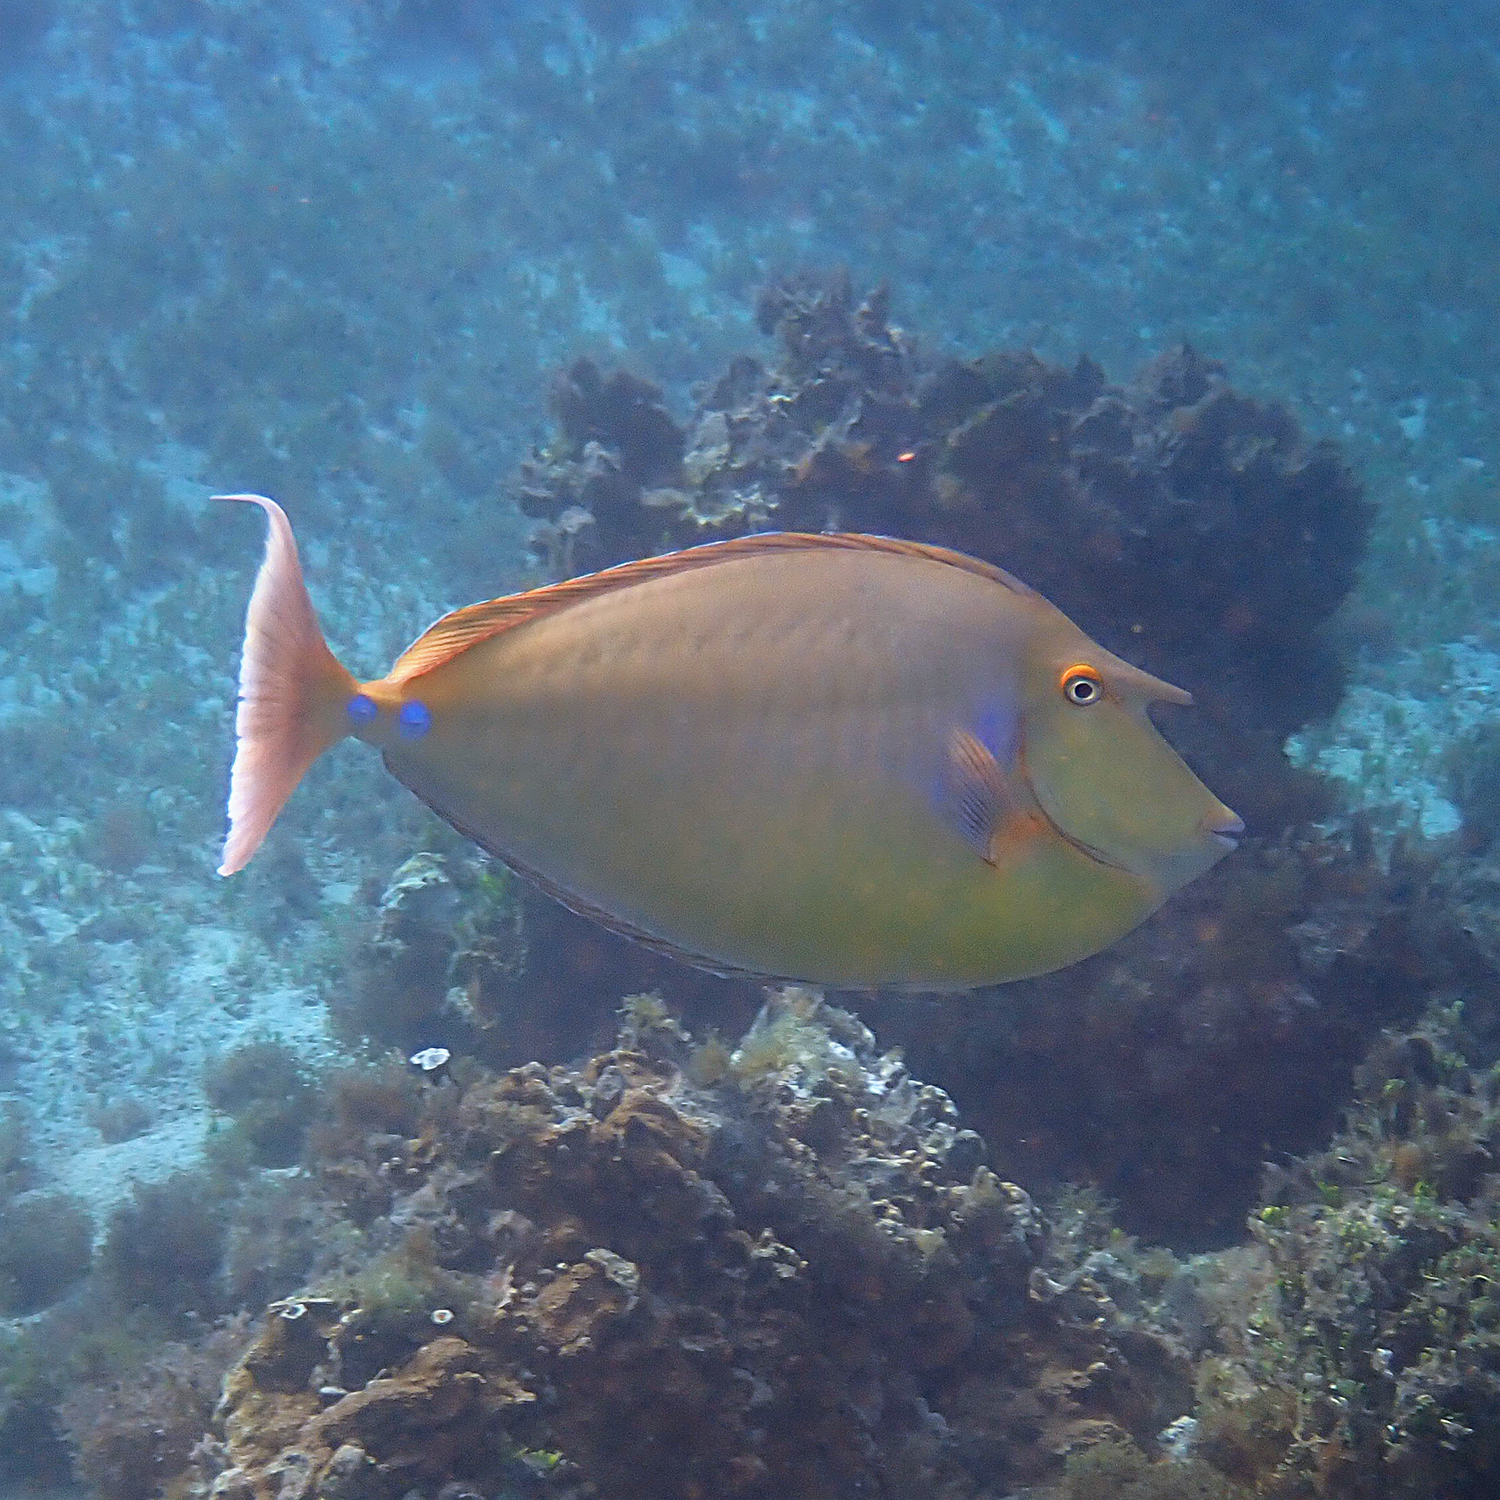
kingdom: Animalia
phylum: Chordata
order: Perciformes
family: Acanthuridae
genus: Naso
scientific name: Naso unicornis
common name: Bluespine unicornfish
